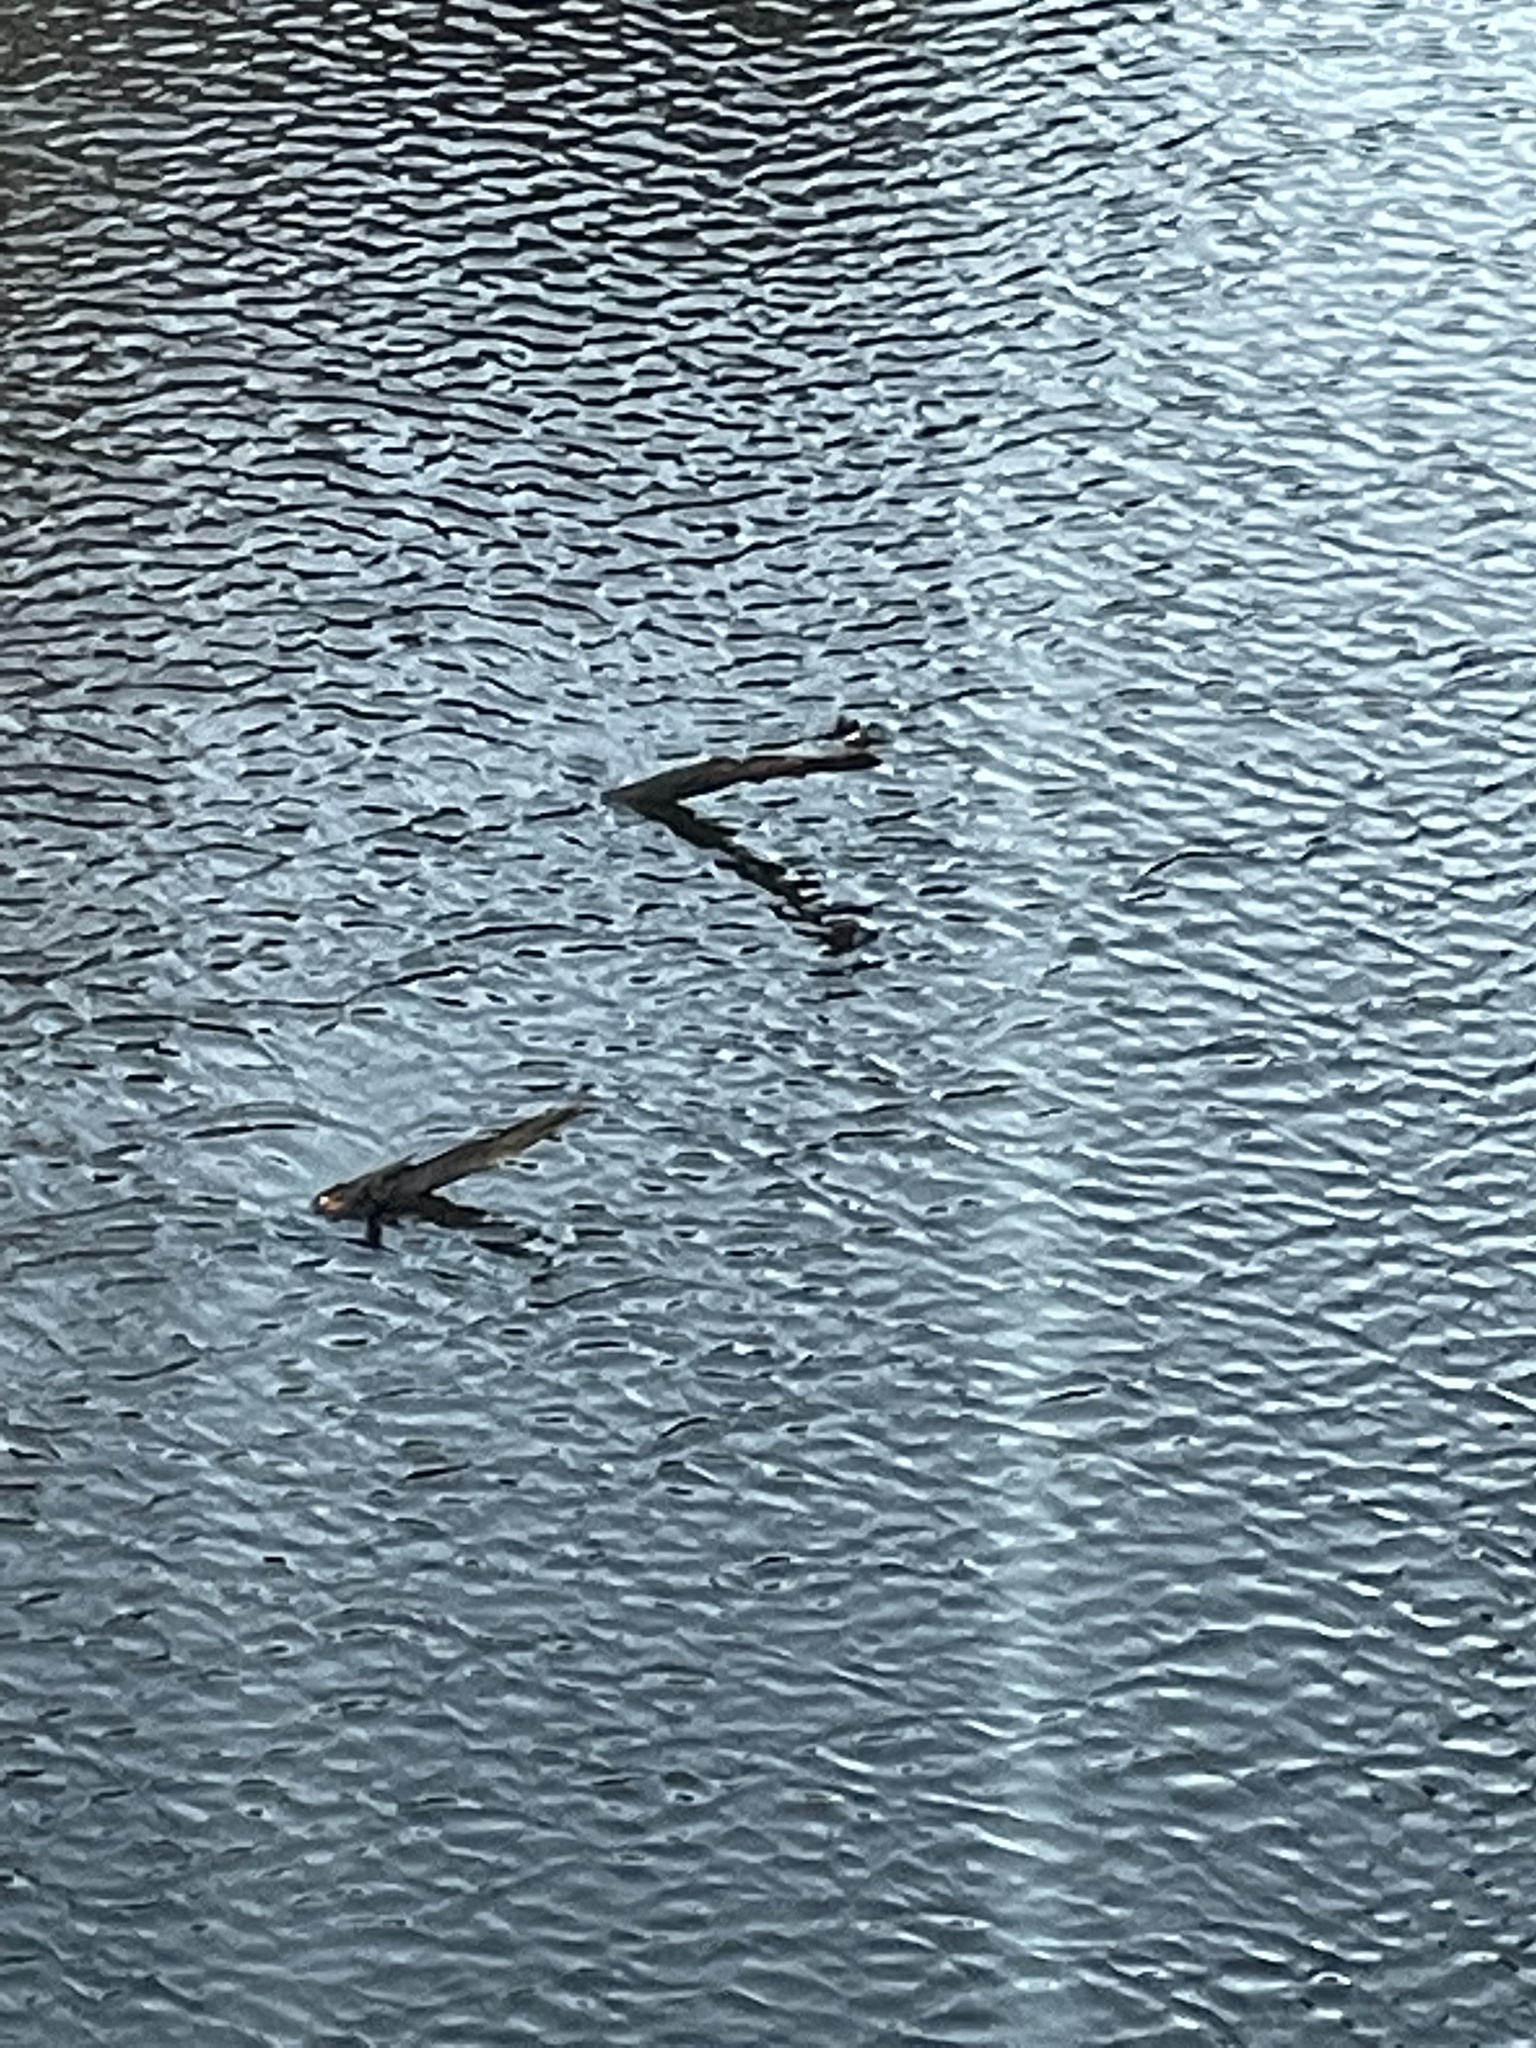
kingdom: Animalia
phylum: Chordata
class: Aves
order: Coraciiformes
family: Alcedinidae
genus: Megaceryle
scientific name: Megaceryle alcyon
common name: Belted kingfisher
